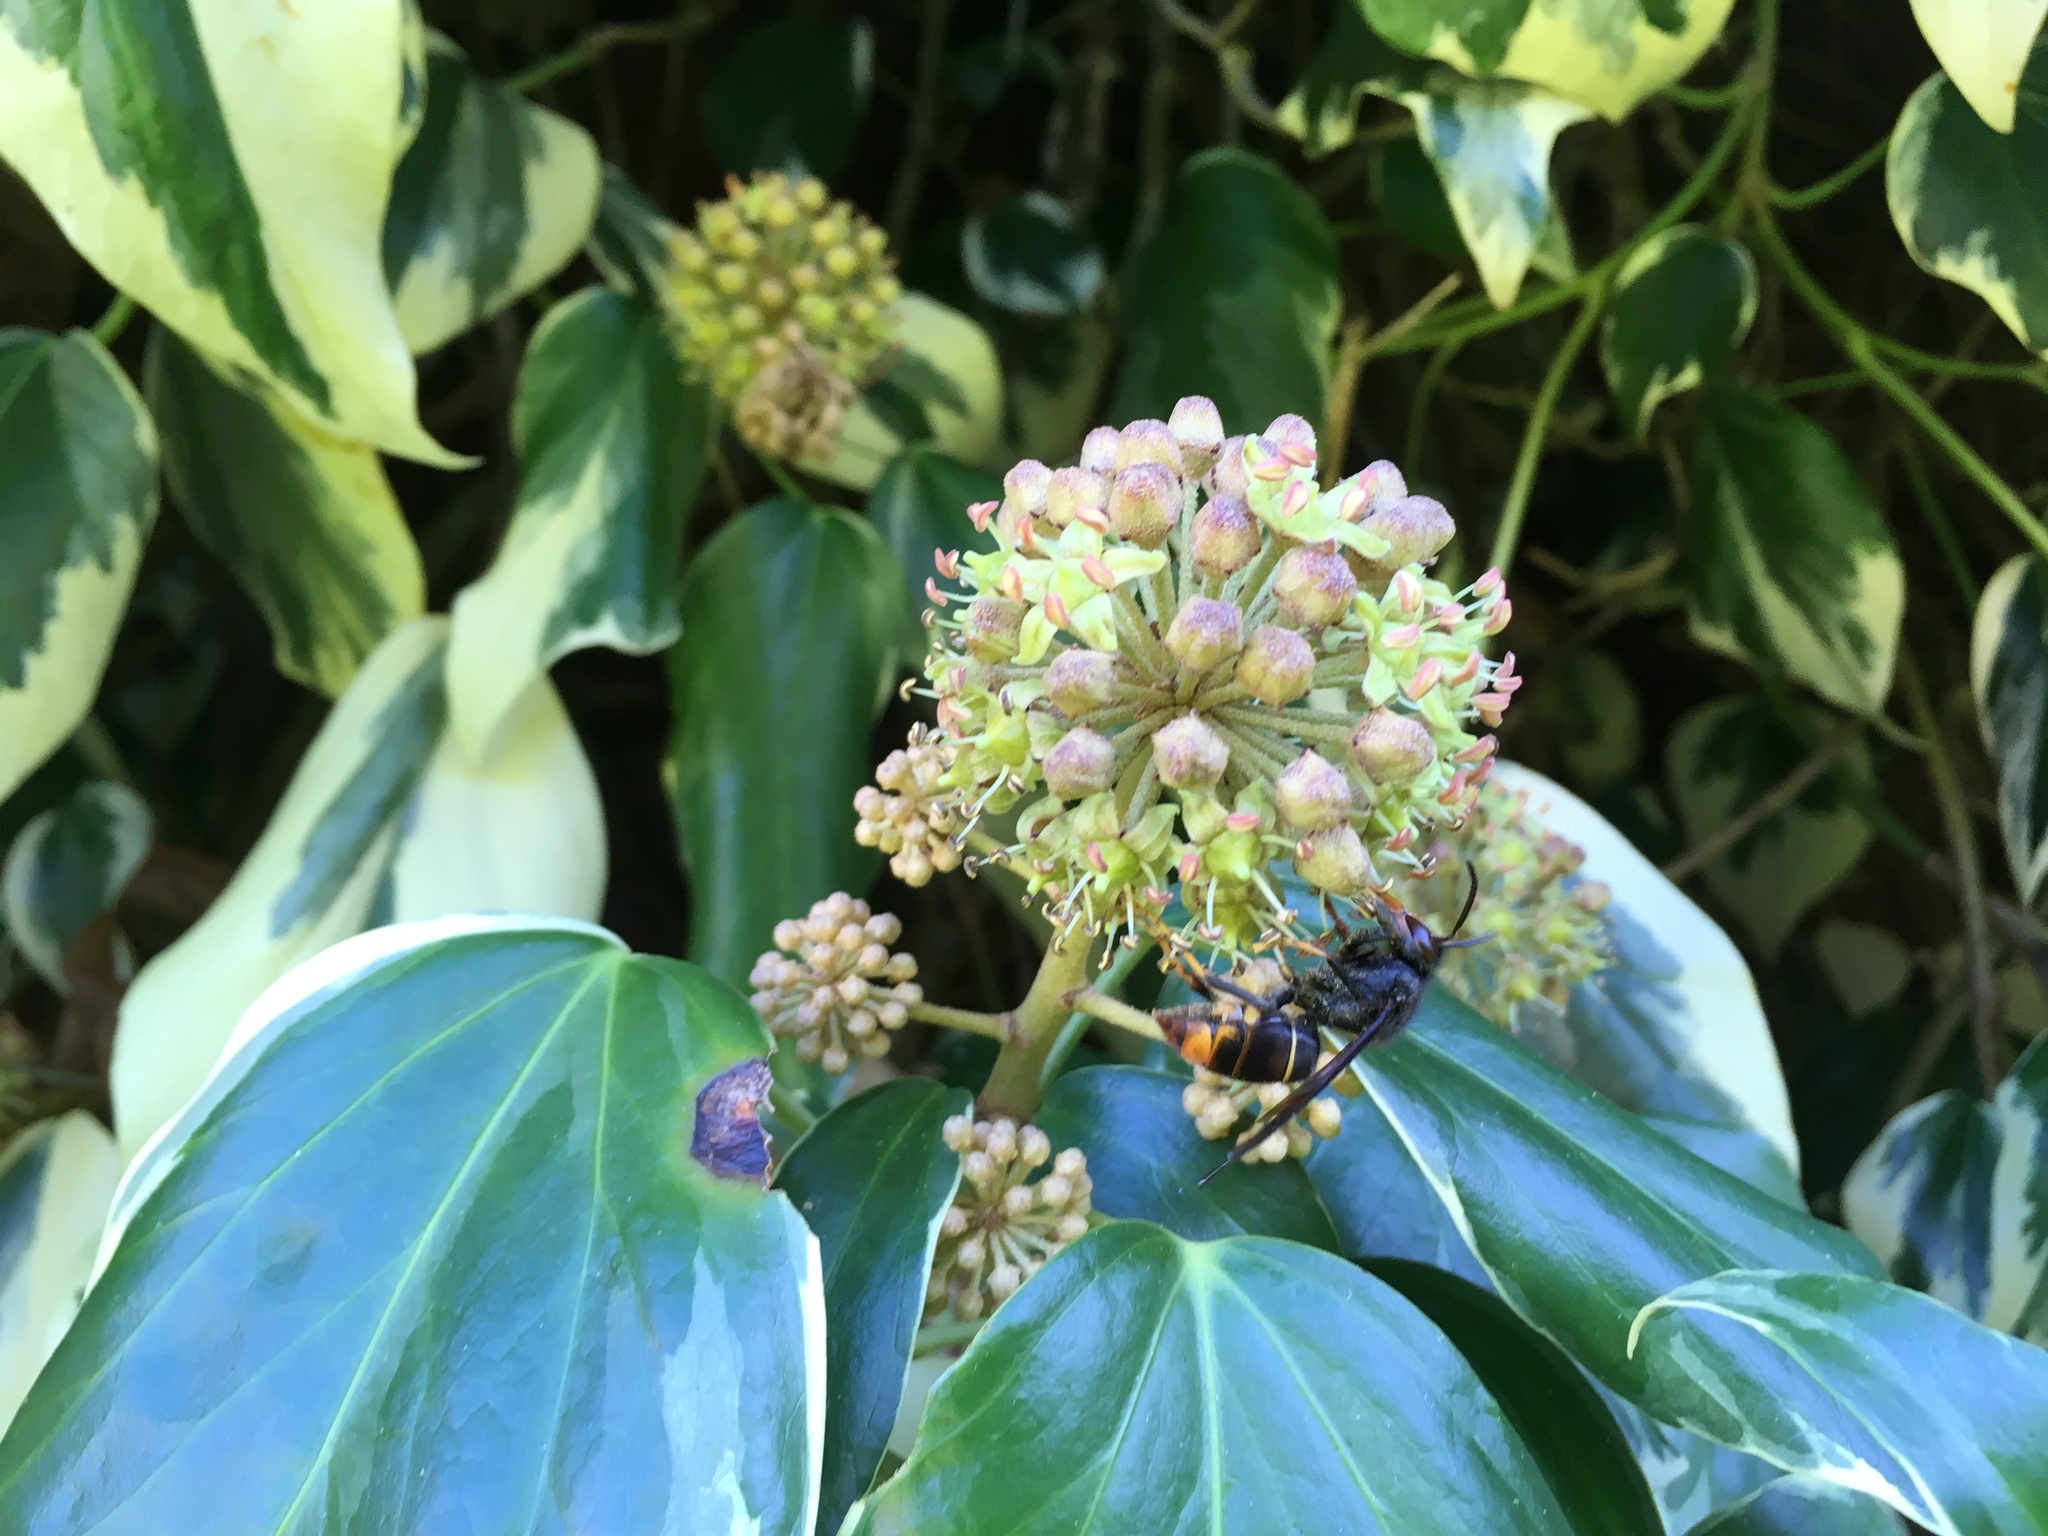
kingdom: Animalia
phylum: Arthropoda
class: Insecta
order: Hymenoptera
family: Vespidae
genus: Vespa
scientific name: Vespa velutina
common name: Asian hornet
